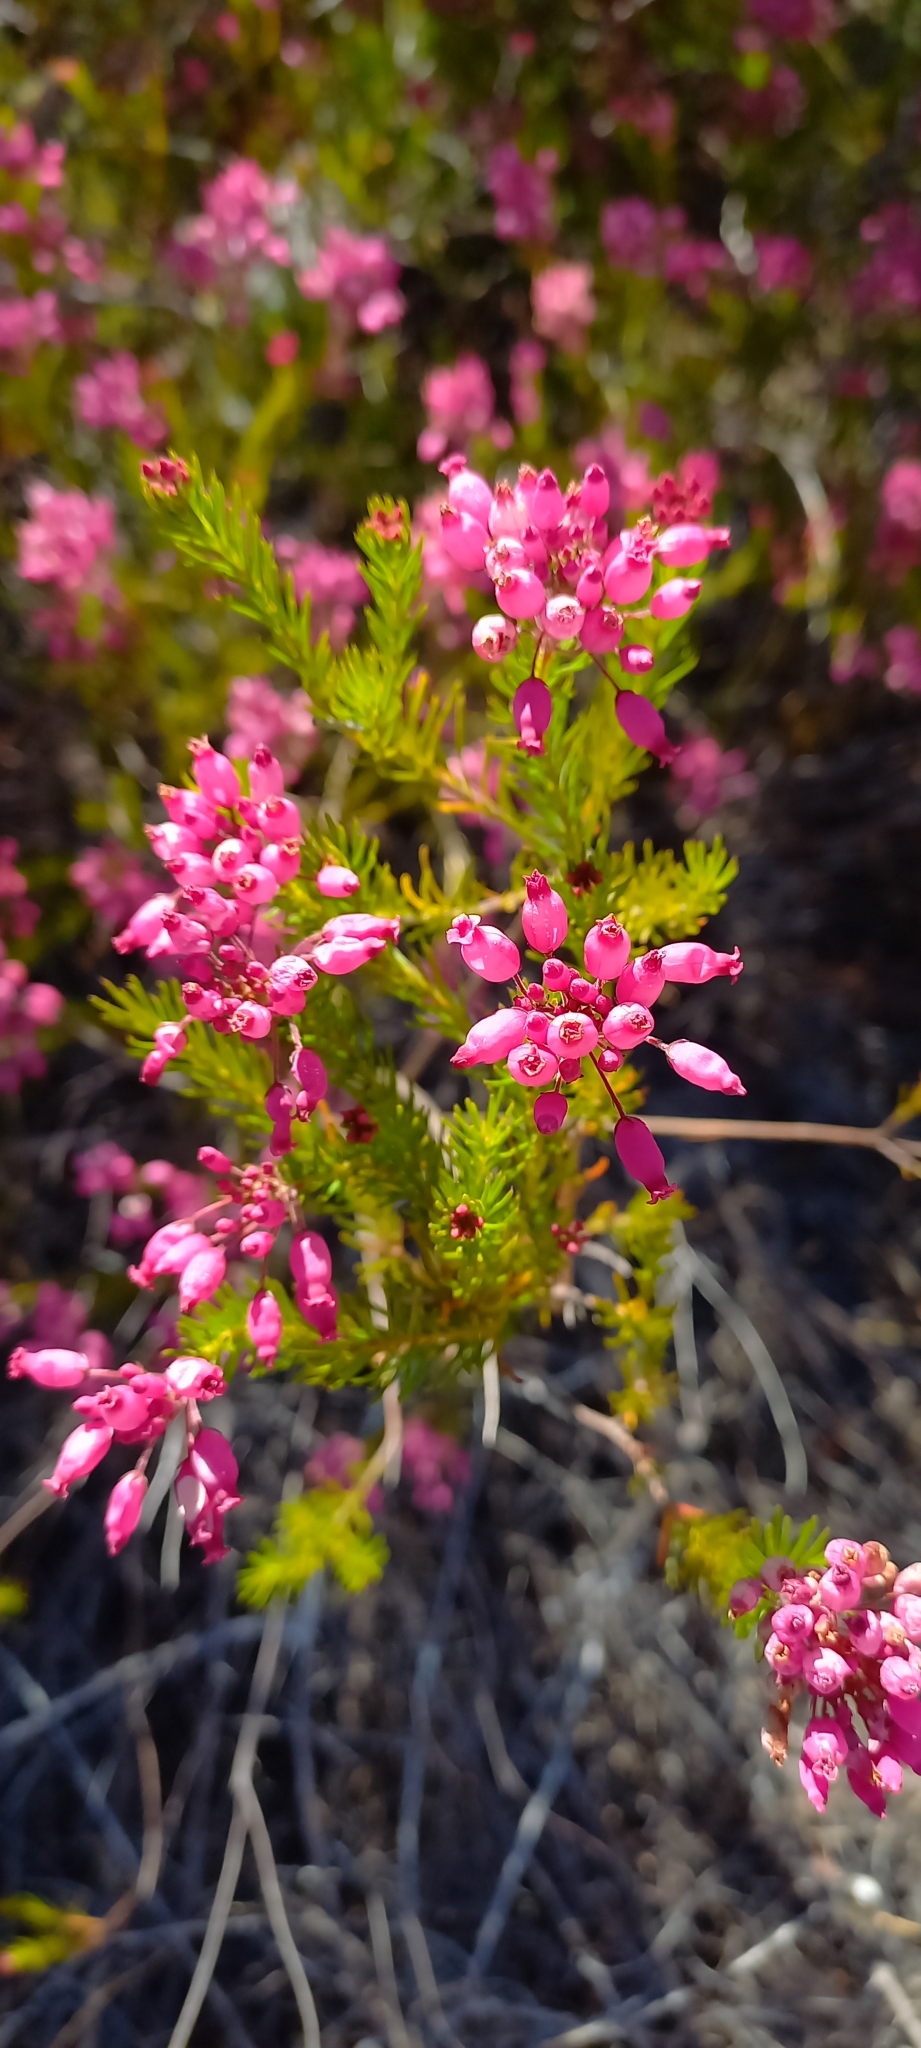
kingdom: Plantae
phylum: Tracheophyta
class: Magnoliopsida
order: Ericales
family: Ericaceae
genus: Erica
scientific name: Erica inflata
